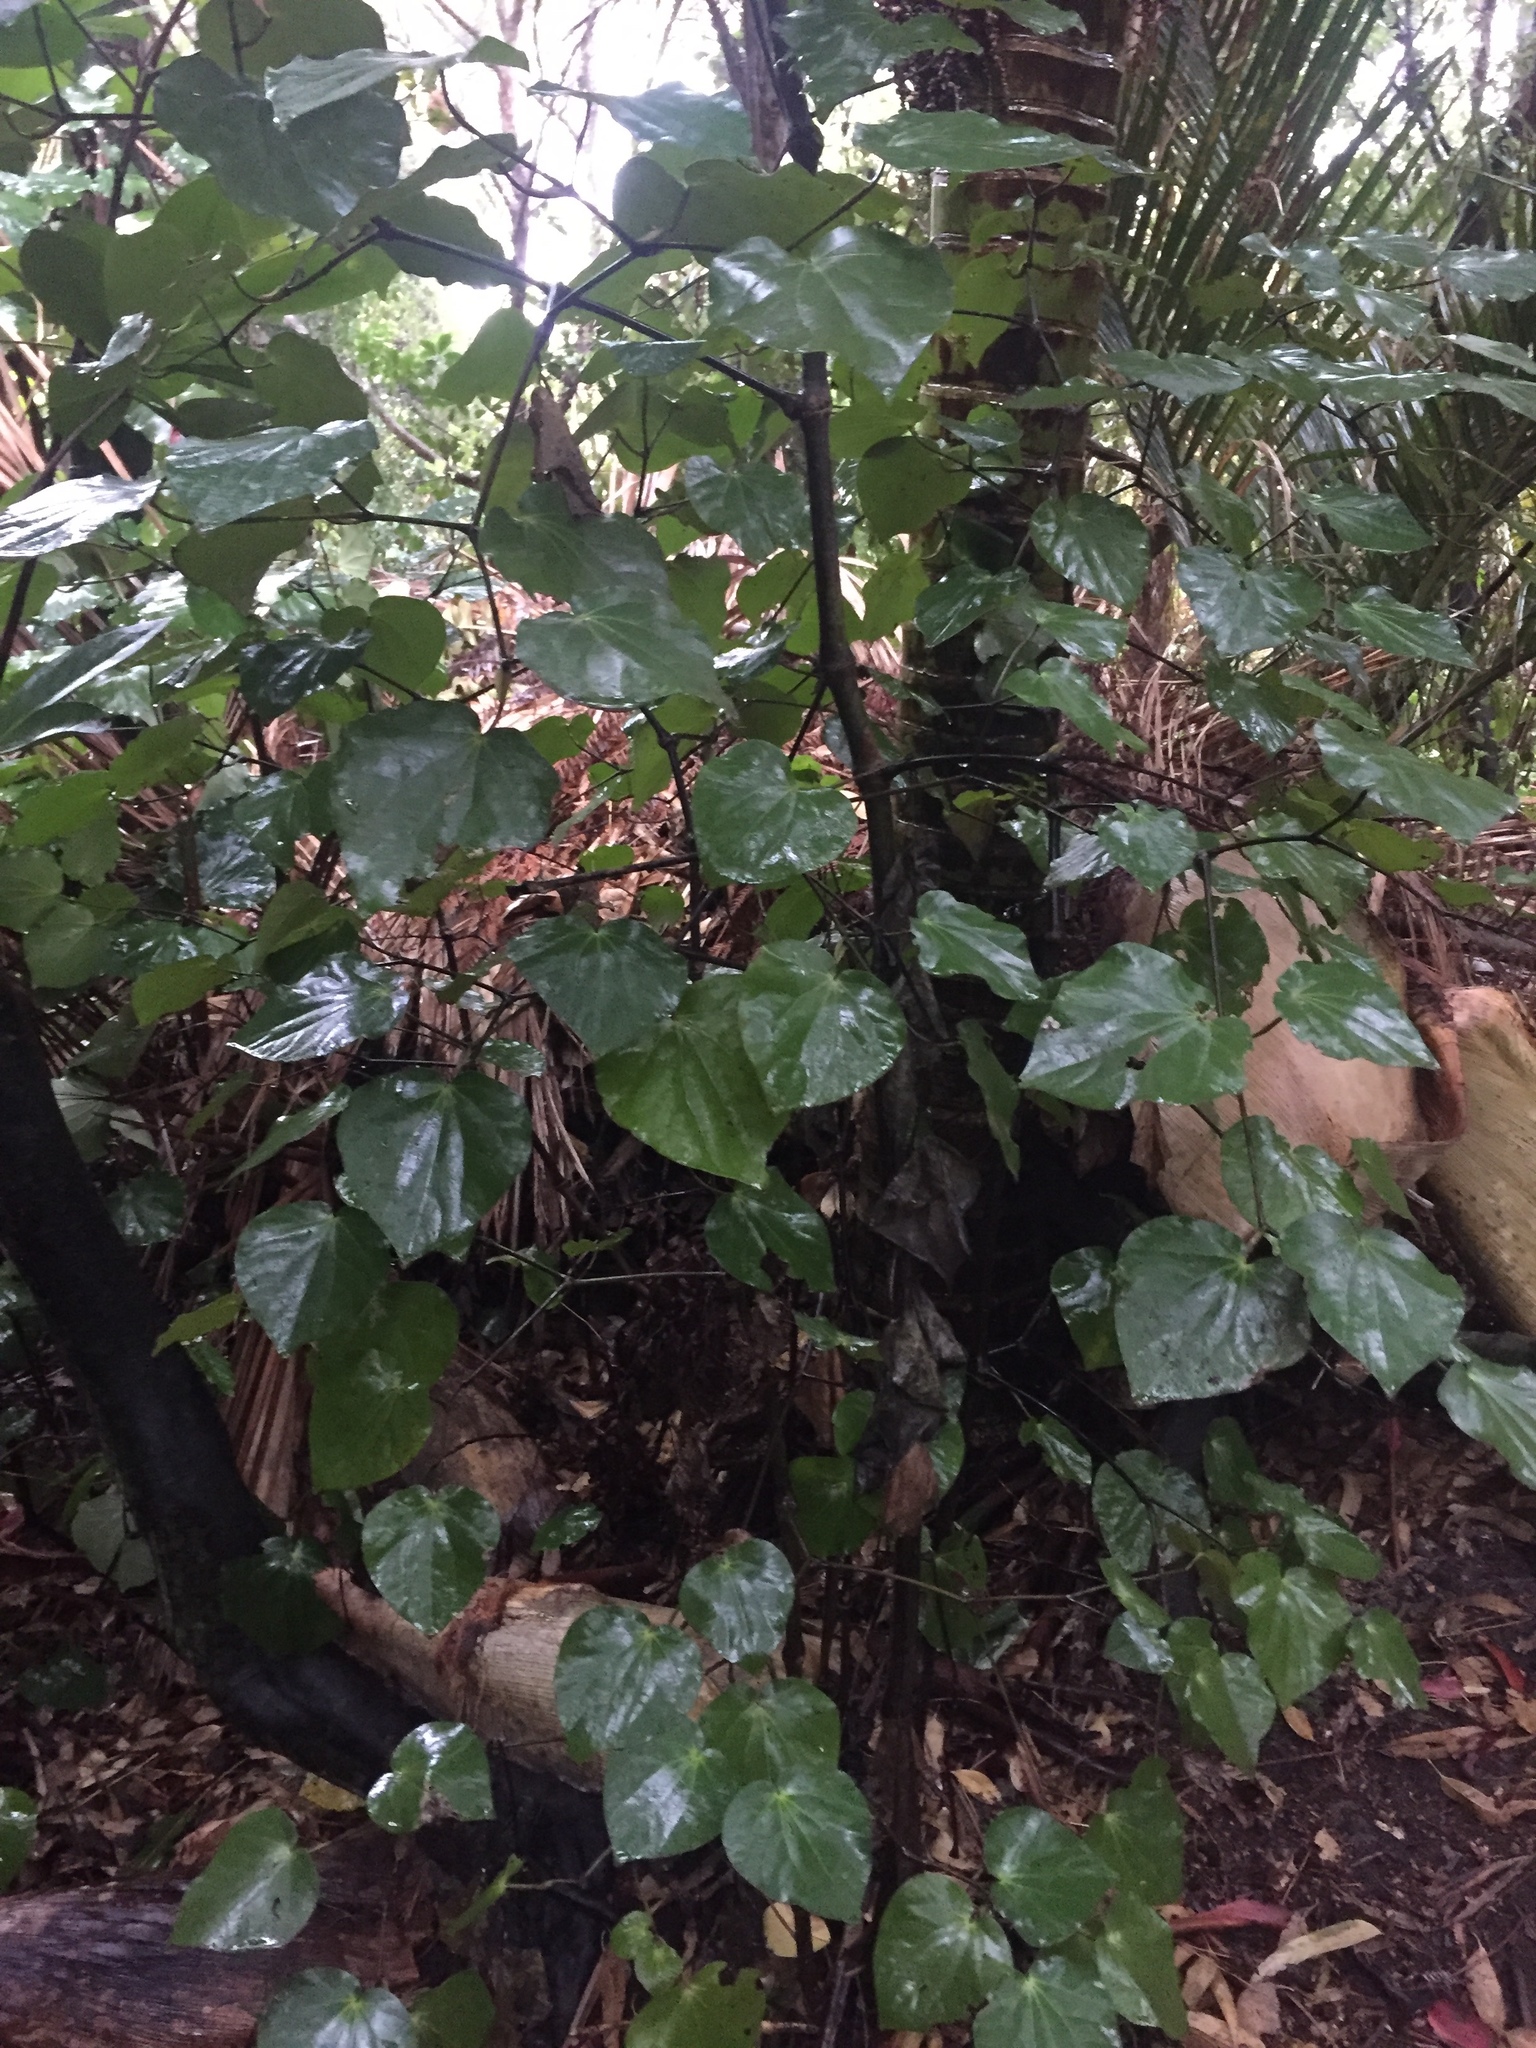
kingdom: Plantae
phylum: Tracheophyta
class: Magnoliopsida
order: Piperales
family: Piperaceae
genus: Macropiper
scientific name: Macropiper excelsum
